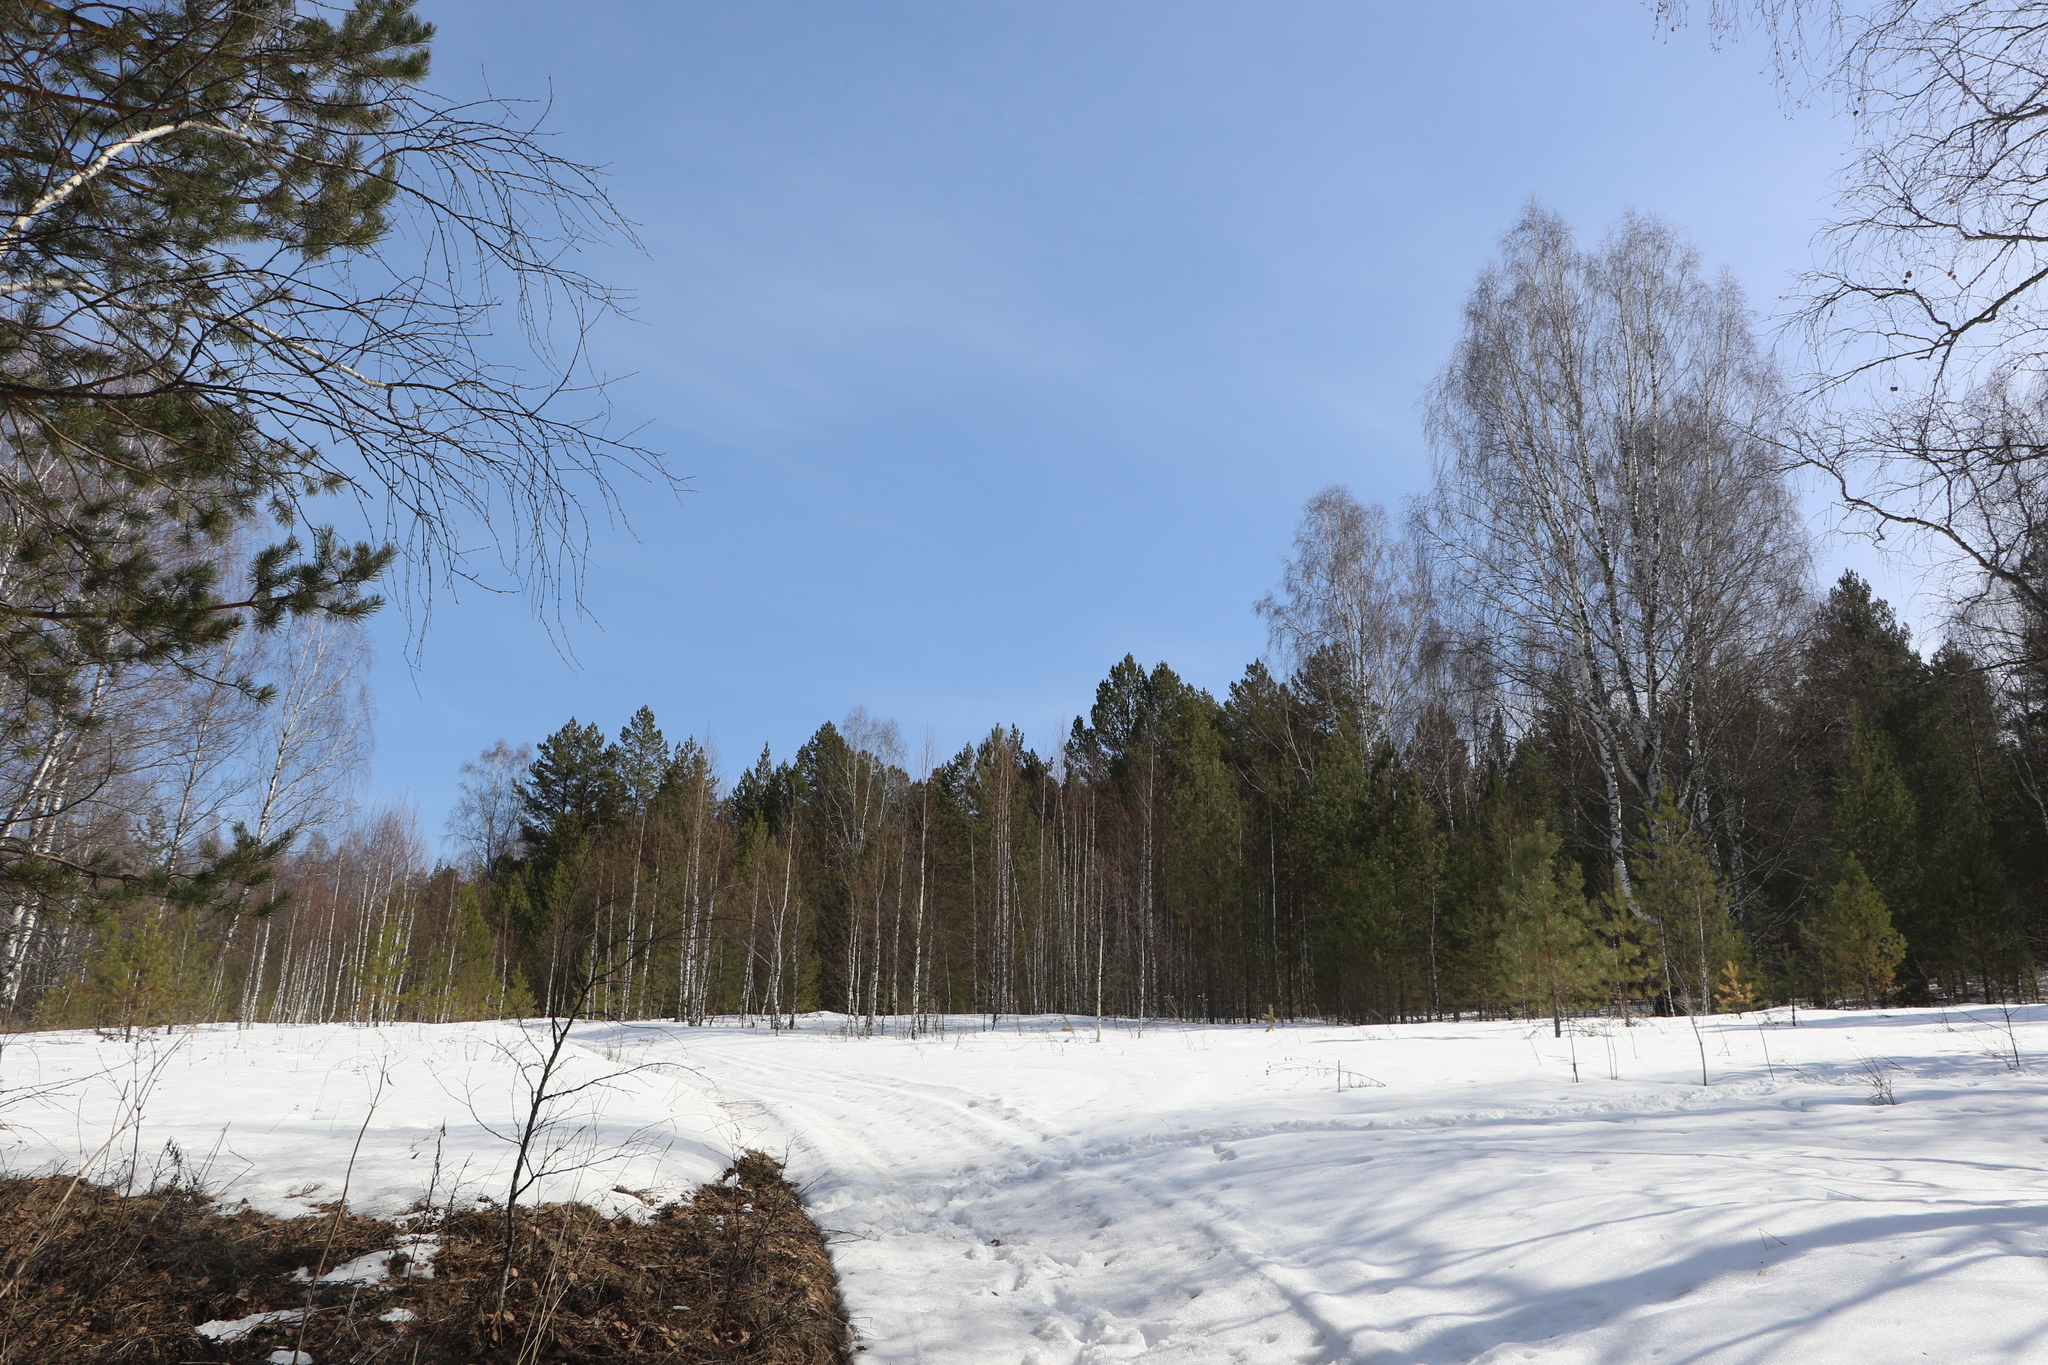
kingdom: Plantae
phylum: Tracheophyta
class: Pinopsida
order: Pinales
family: Pinaceae
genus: Pinus
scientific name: Pinus sylvestris
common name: Scots pine
